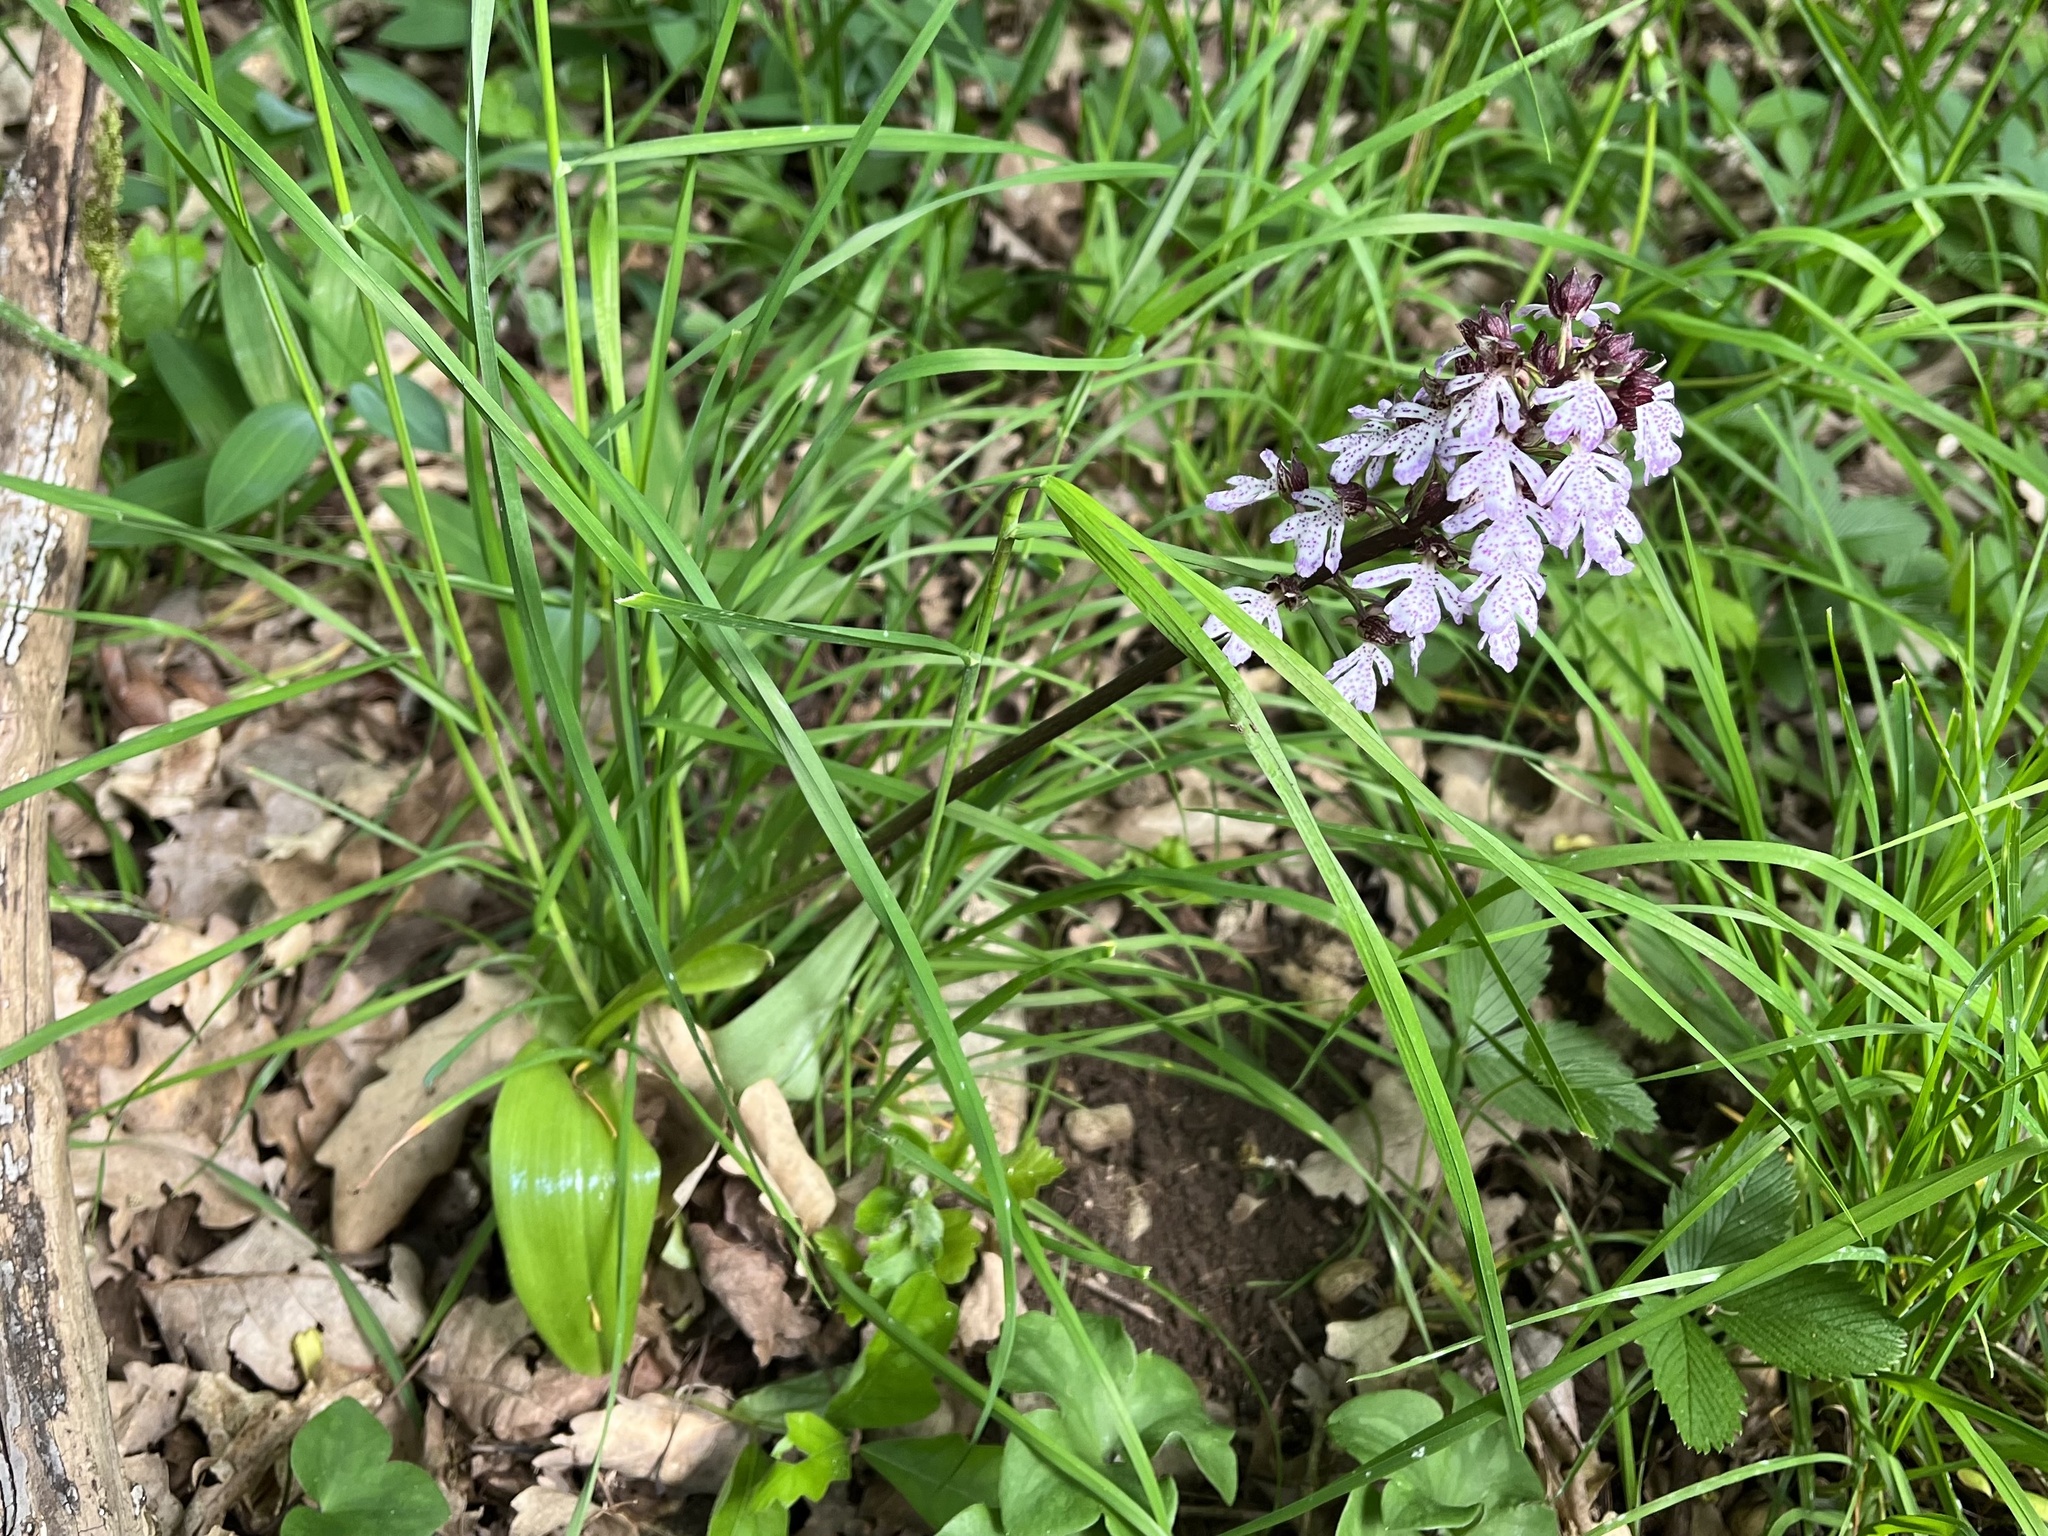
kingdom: Plantae
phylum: Tracheophyta
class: Liliopsida
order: Asparagales
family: Orchidaceae
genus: Orchis
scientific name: Orchis purpurea
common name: Lady orchid
